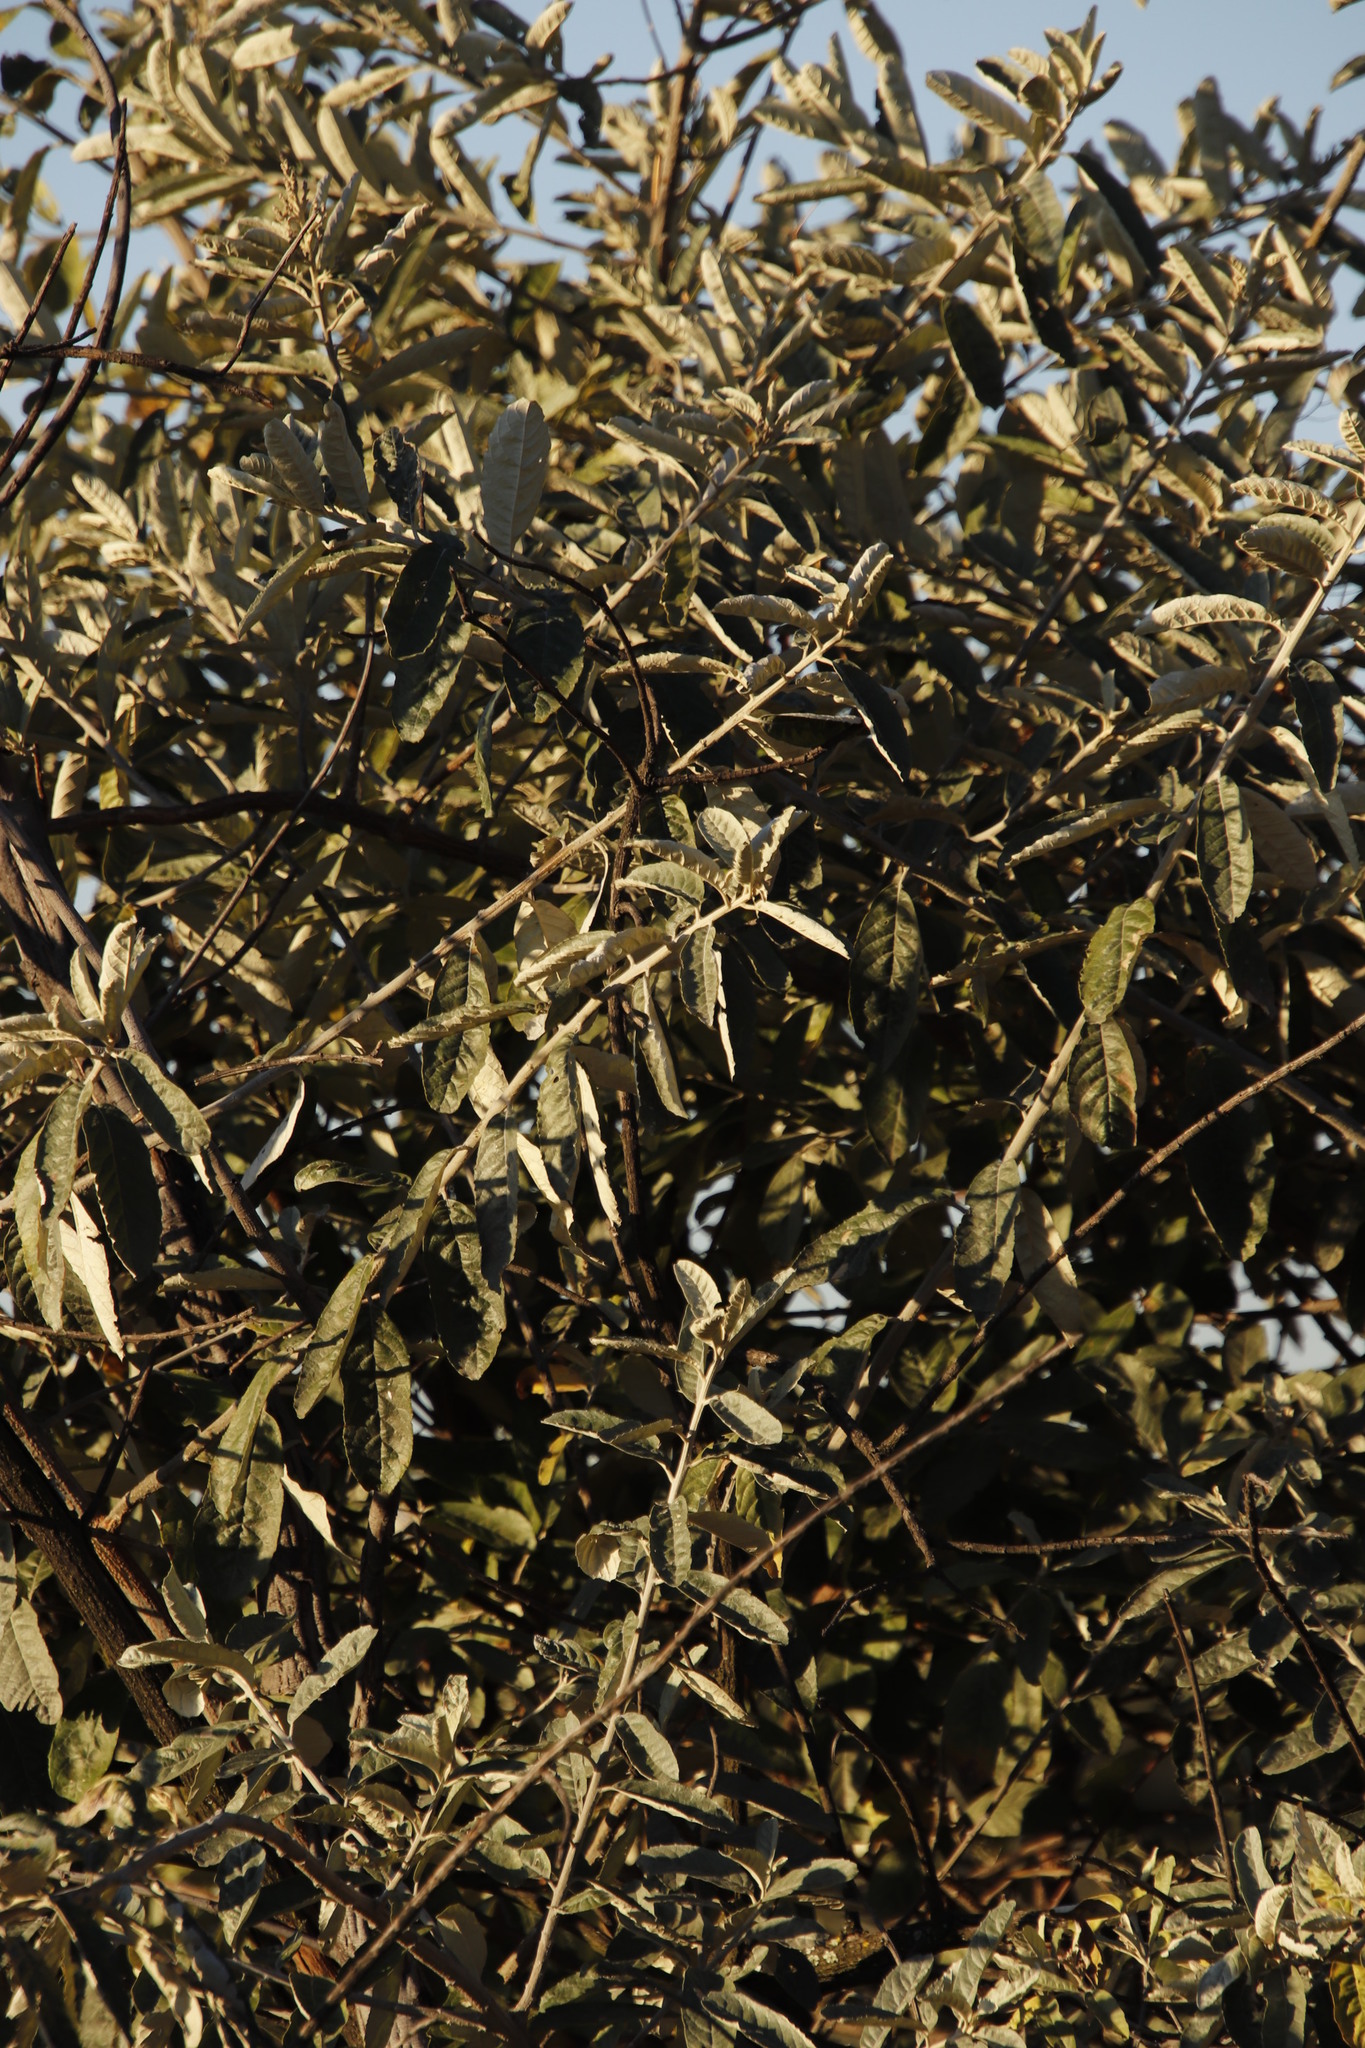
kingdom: Plantae
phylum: Tracheophyta
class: Magnoliopsida
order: Asterales
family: Asteraceae
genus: Brachylaena
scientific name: Brachylaena discolor
